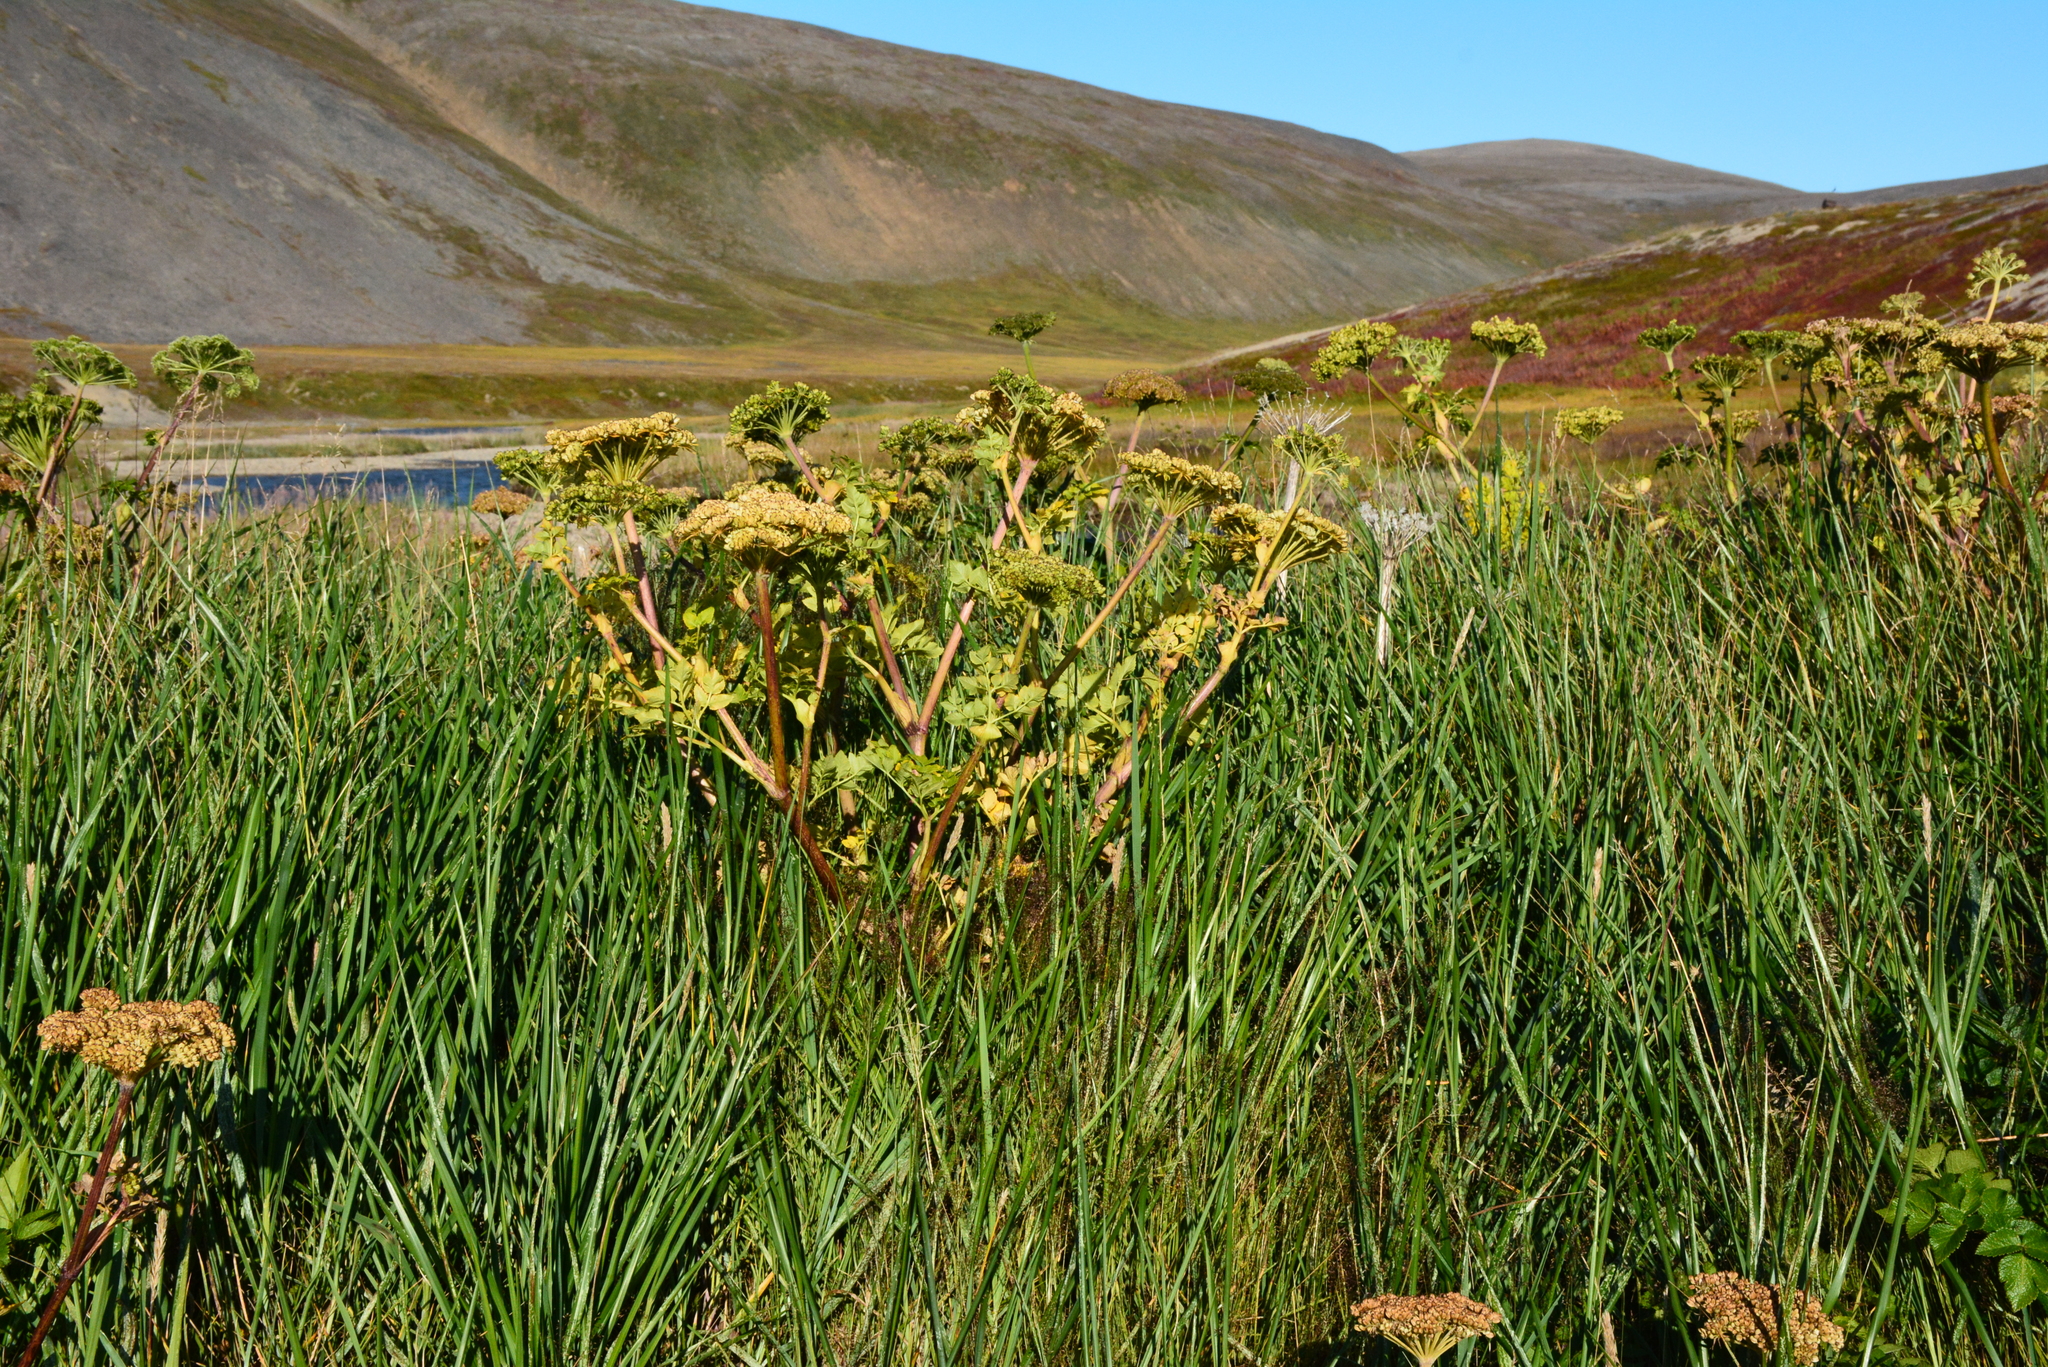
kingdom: Plantae
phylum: Tracheophyta
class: Magnoliopsida
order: Apiales
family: Apiaceae
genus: Angelica
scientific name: Angelica gmelinii
